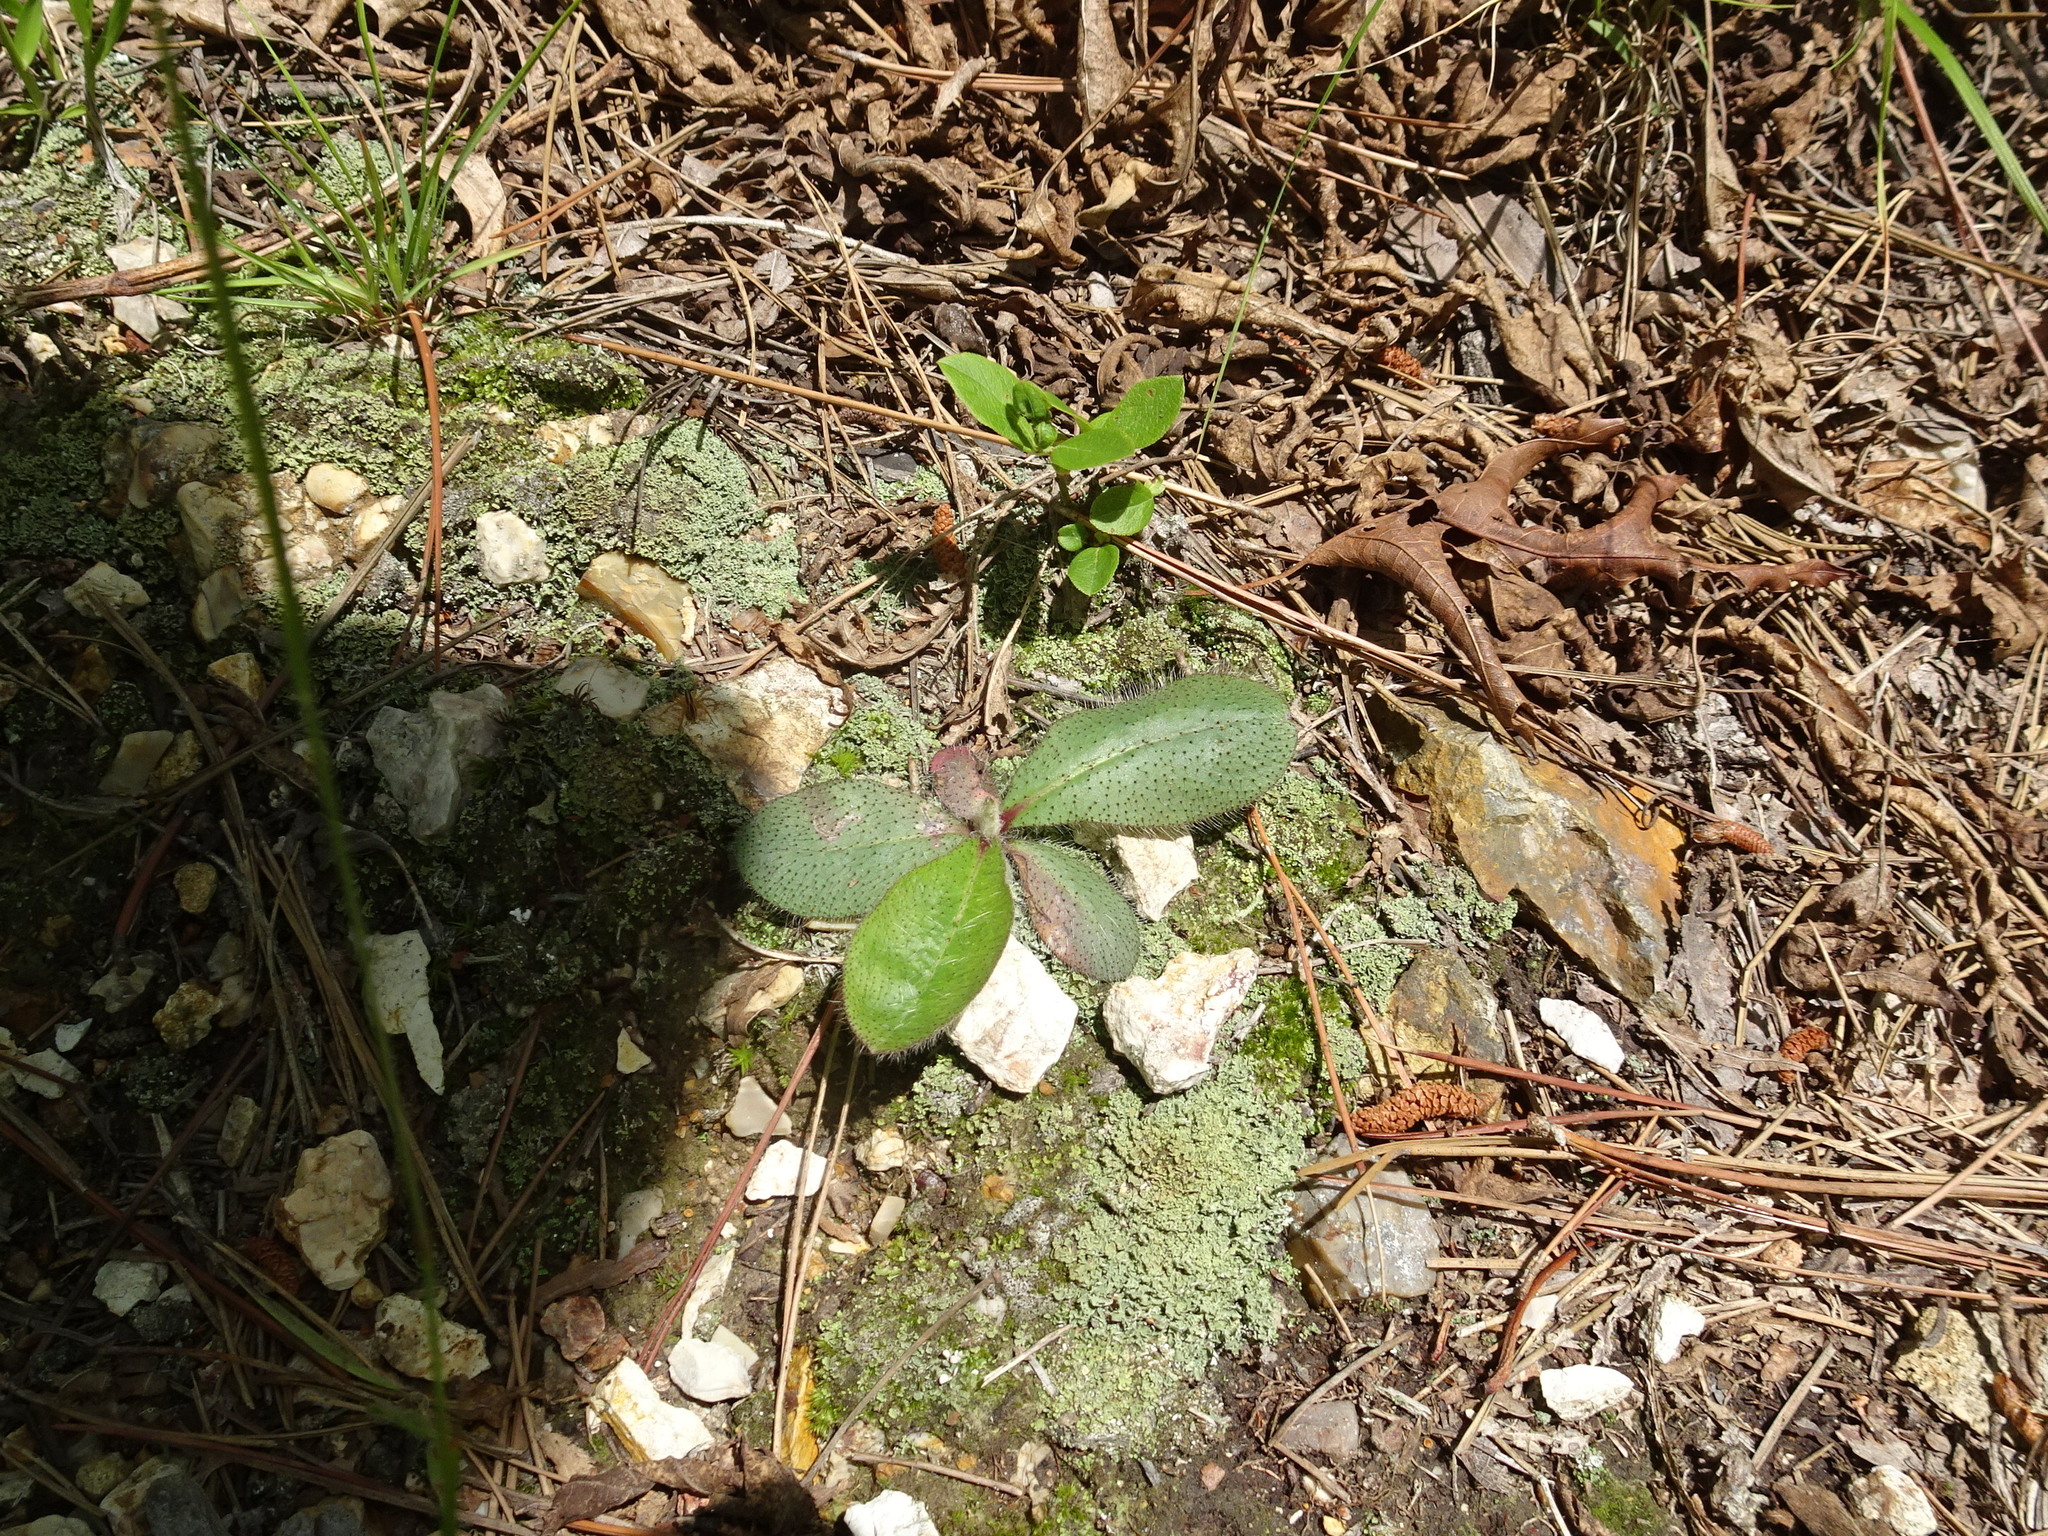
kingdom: Plantae
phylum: Tracheophyta
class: Magnoliopsida
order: Asterales
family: Asteraceae
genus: Hieracium
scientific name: Hieracium gronovii
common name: Beaked hawkweed
